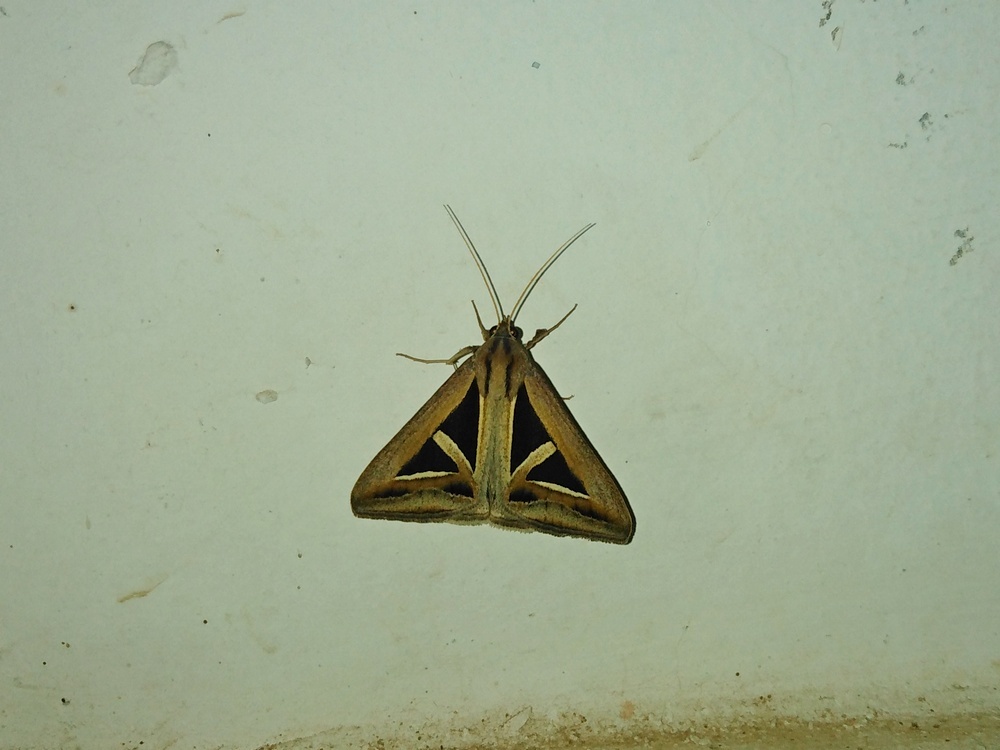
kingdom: Animalia
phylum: Arthropoda
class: Insecta
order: Lepidoptera
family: Erebidae
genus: Trigonodes
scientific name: Trigonodes hyppasia
